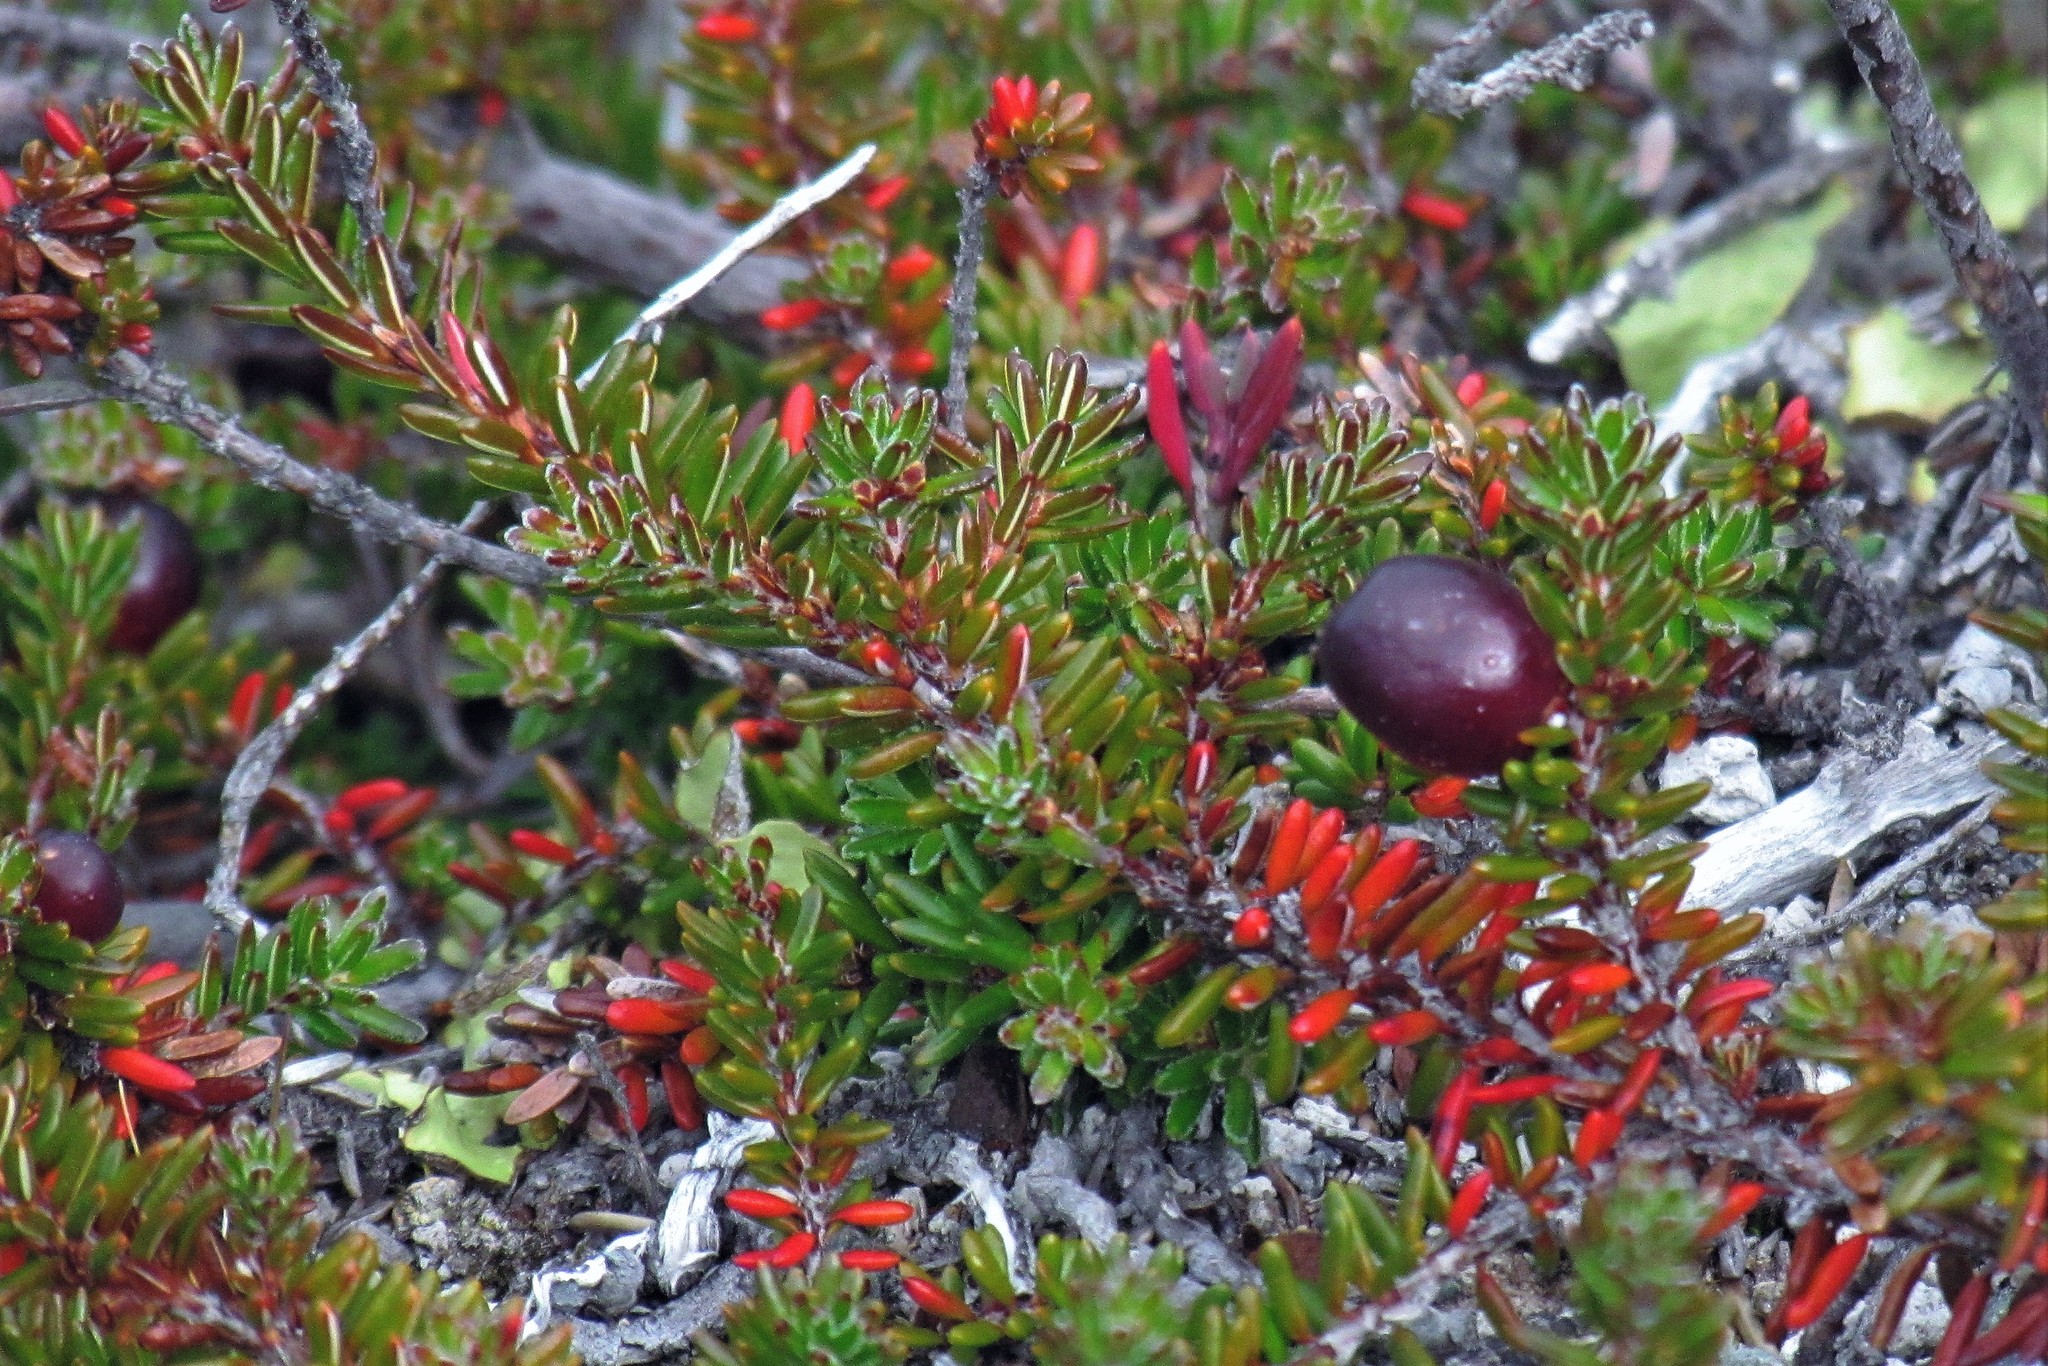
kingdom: Plantae
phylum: Tracheophyta
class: Magnoliopsida
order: Ericales
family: Ericaceae
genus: Empetrum
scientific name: Empetrum rubrum
